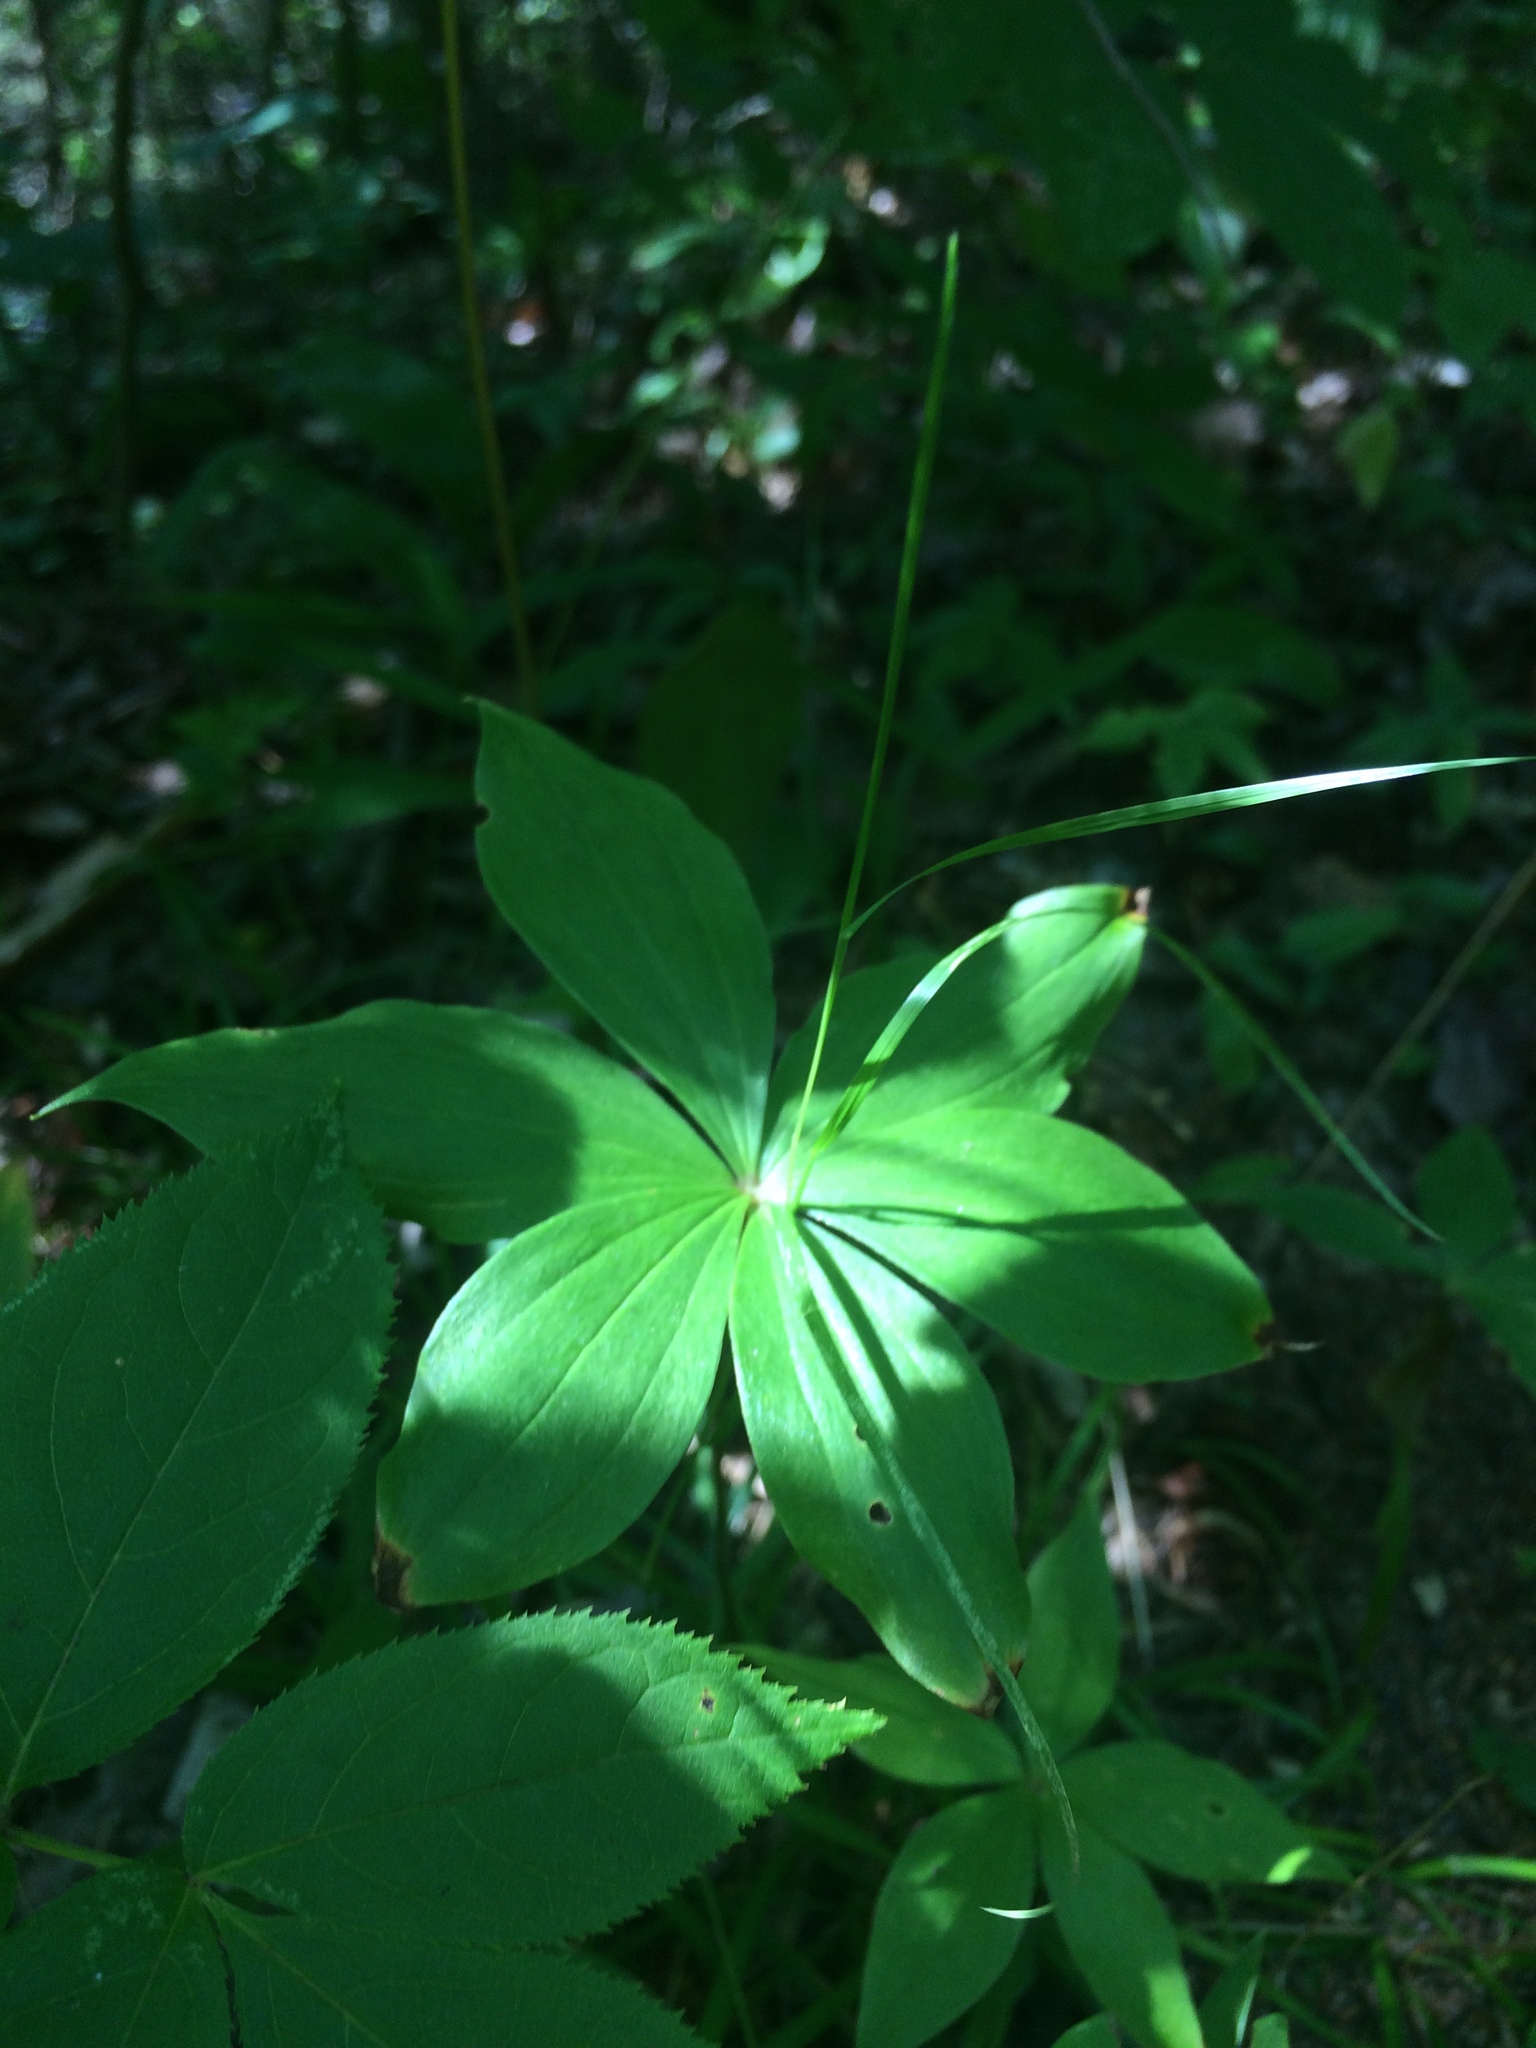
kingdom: Plantae
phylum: Tracheophyta
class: Liliopsida
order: Liliales
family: Liliaceae
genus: Medeola
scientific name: Medeola virginiana
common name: Indian cucumber-root
